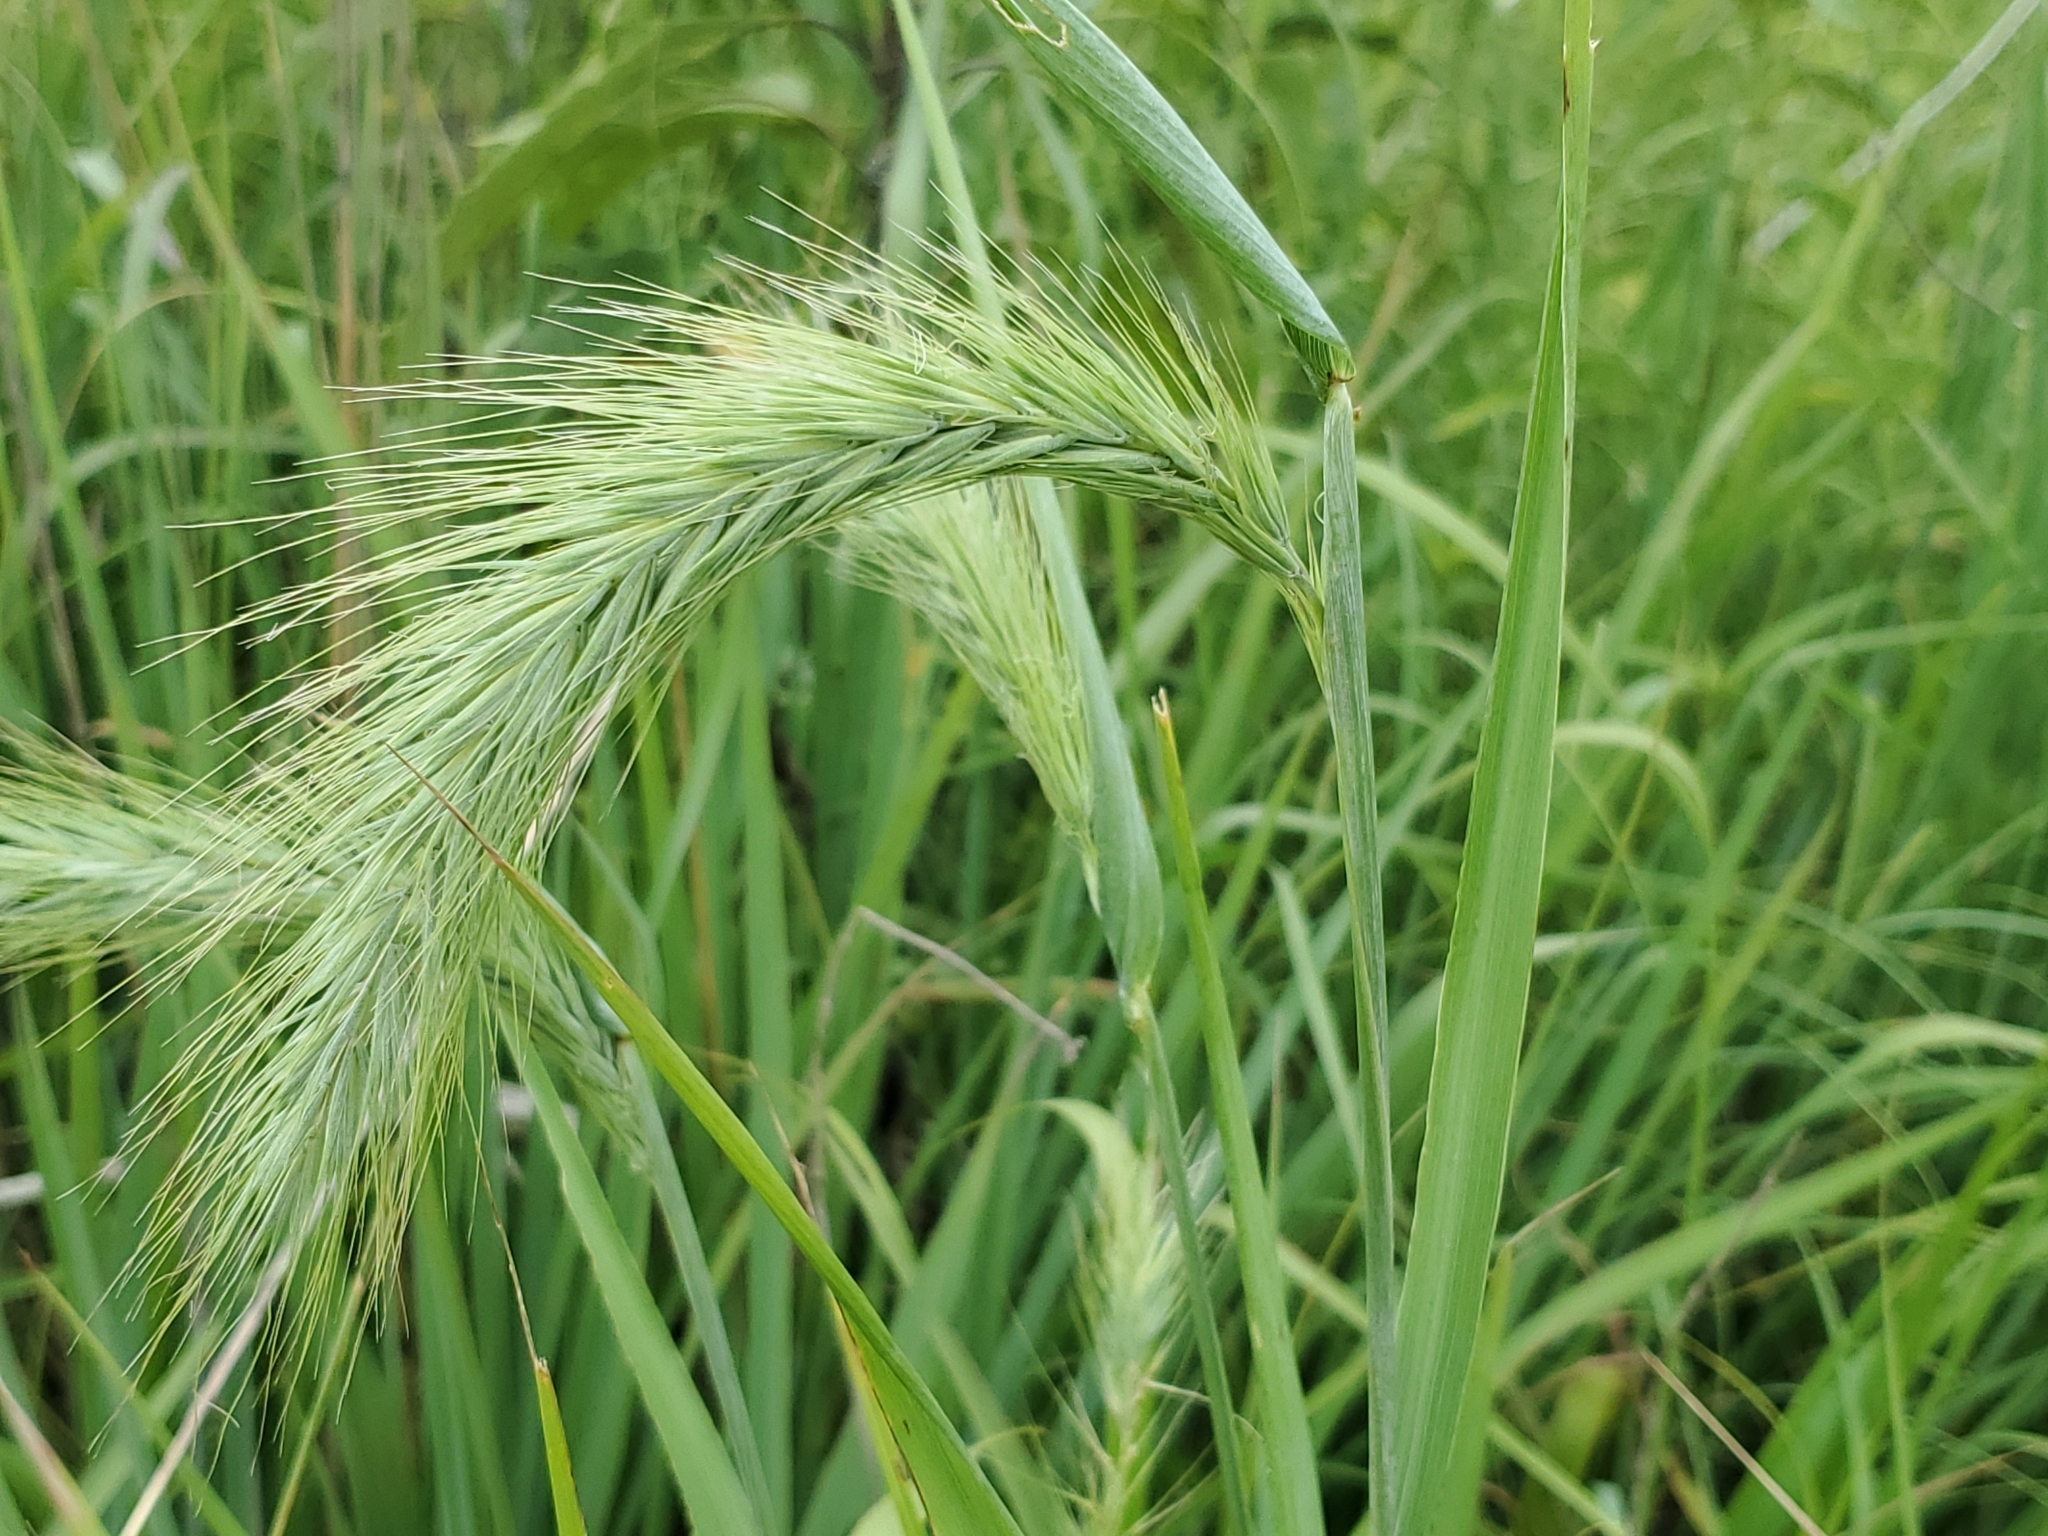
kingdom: Plantae
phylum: Tracheophyta
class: Liliopsida
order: Poales
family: Poaceae
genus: Elymus
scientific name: Elymus canadensis
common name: Canada wild rye
